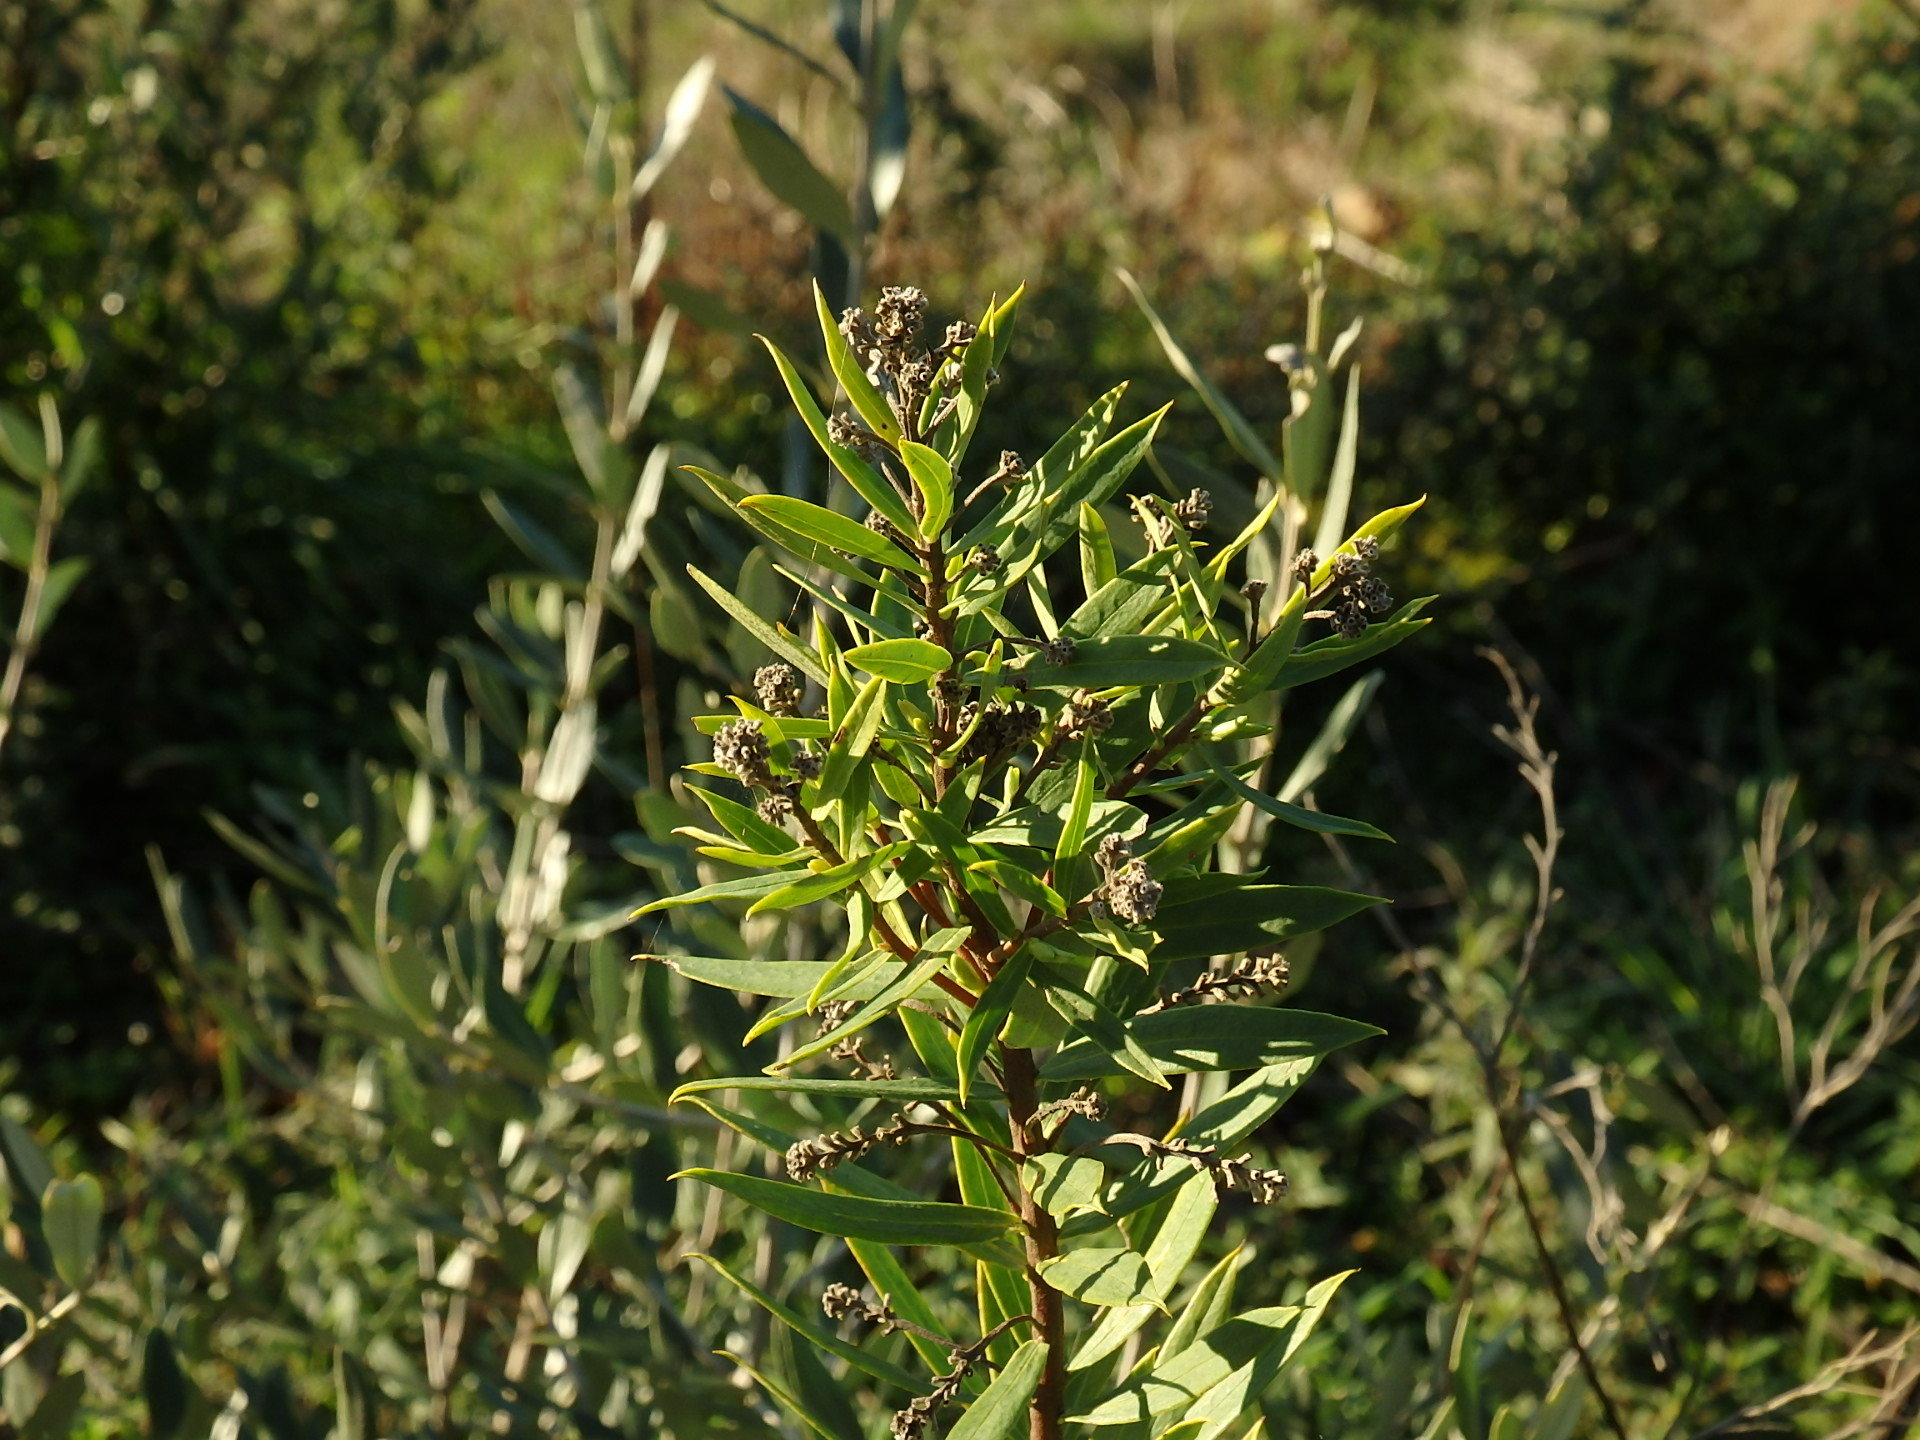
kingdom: Plantae
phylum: Tracheophyta
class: Magnoliopsida
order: Malvales
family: Thymelaeaceae
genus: Daphne
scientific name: Daphne gnidium
